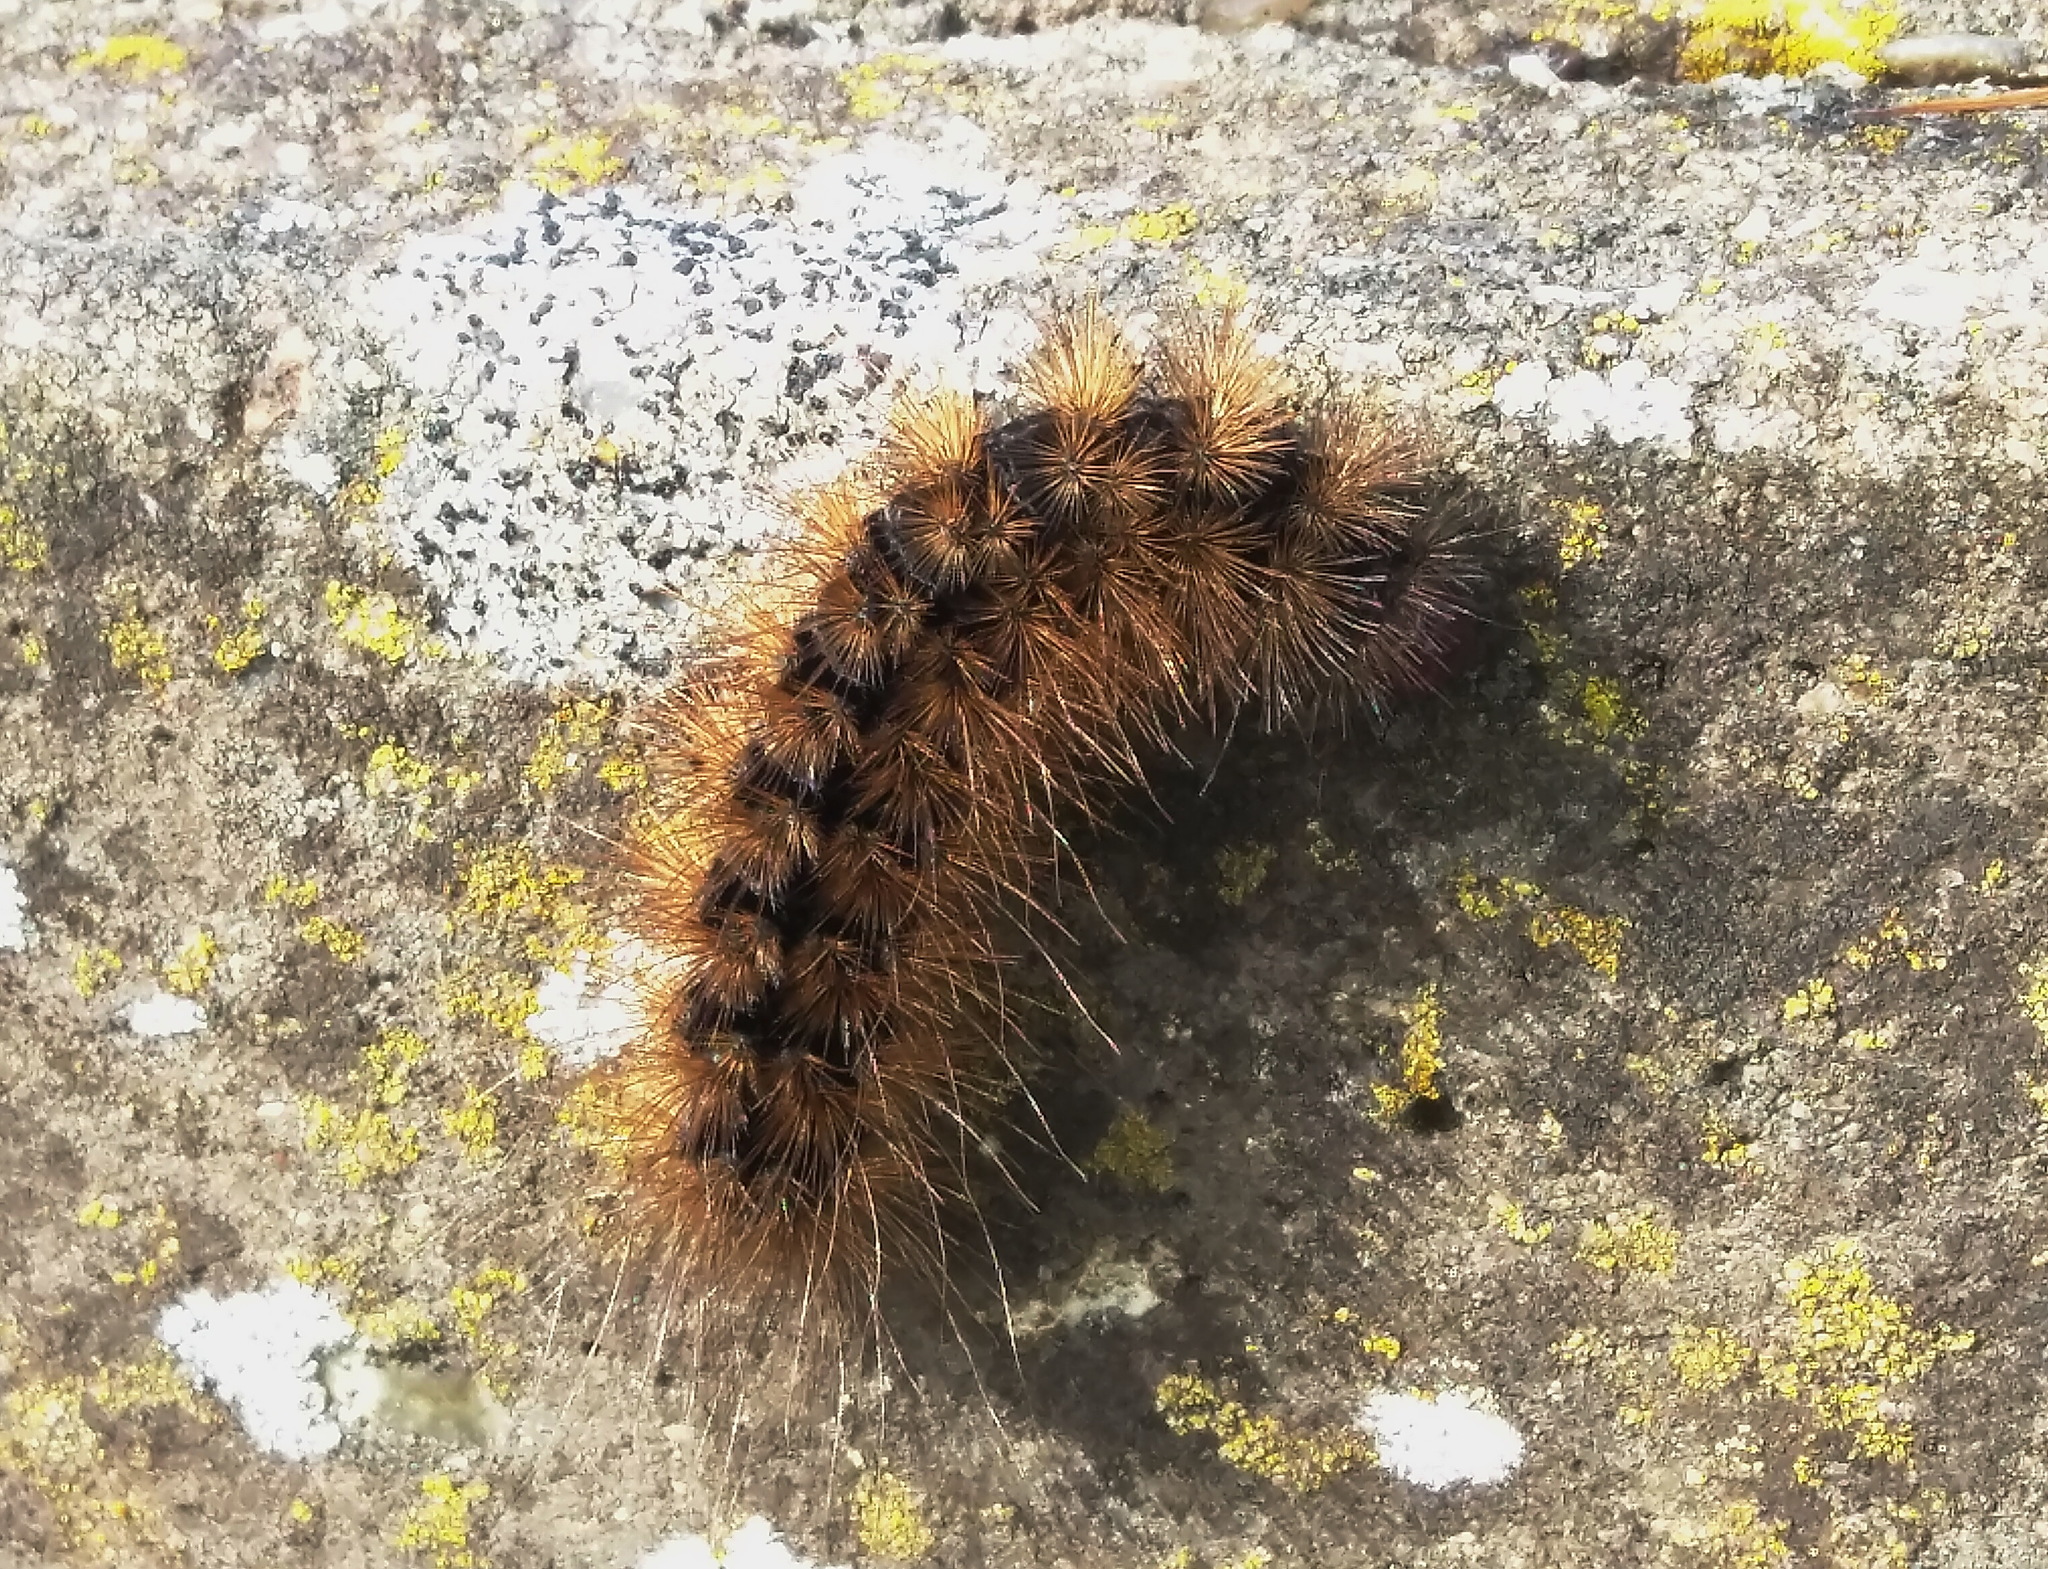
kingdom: Animalia
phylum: Arthropoda
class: Insecta
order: Lepidoptera
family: Erebidae
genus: Epicallia
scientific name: Epicallia villica
